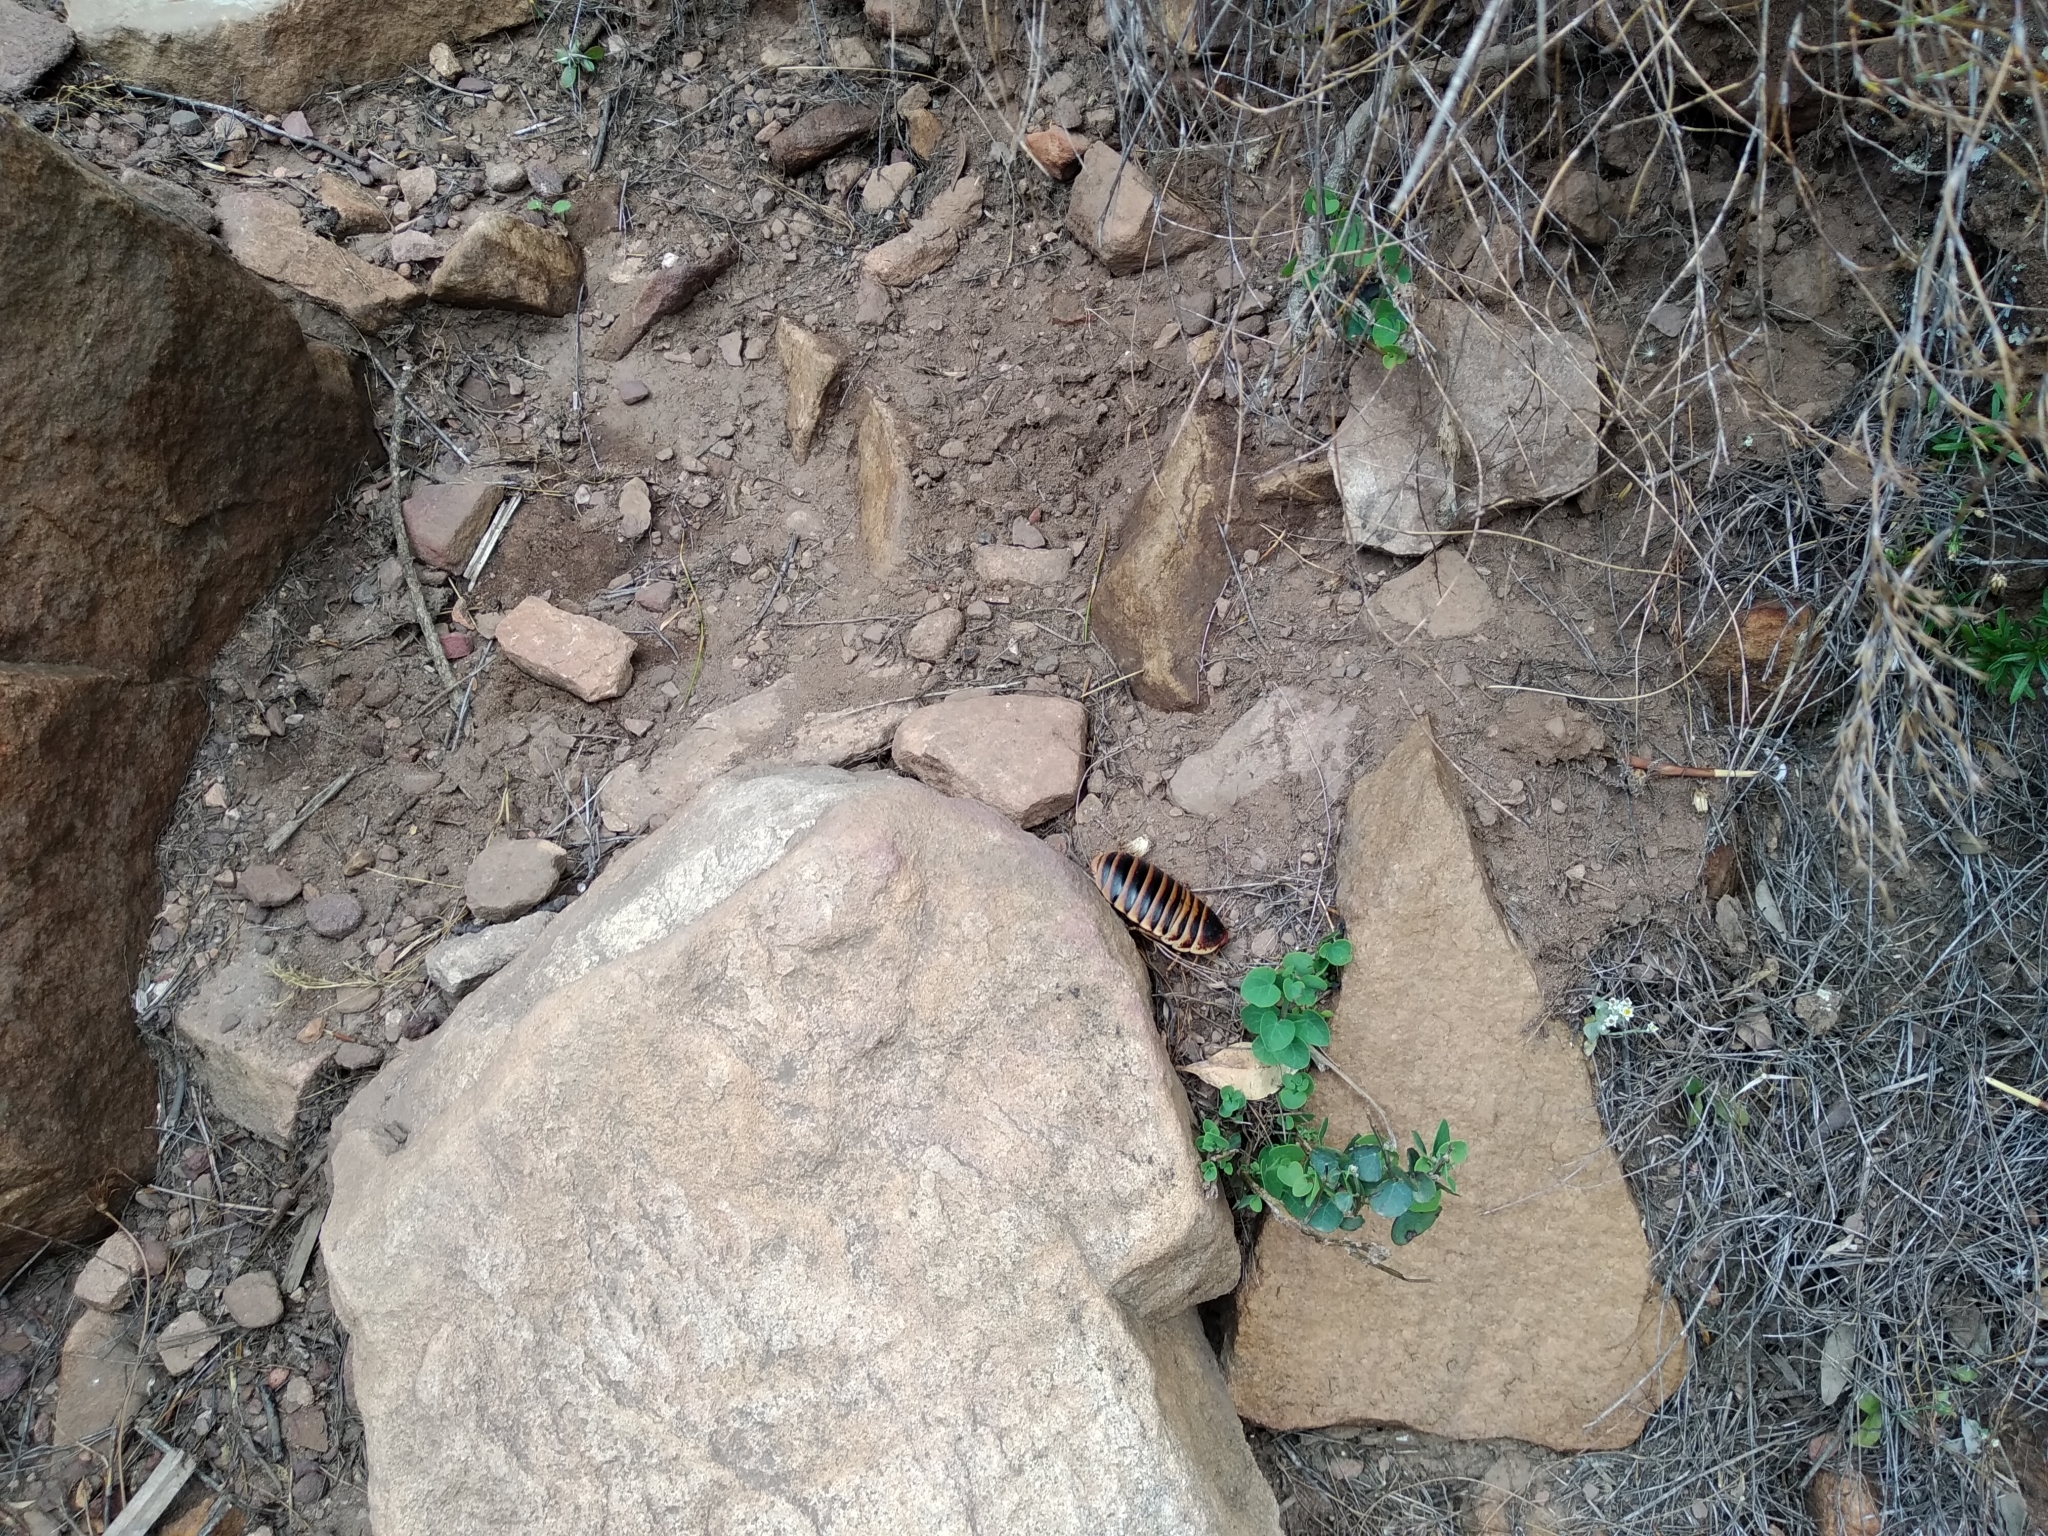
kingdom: Animalia
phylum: Arthropoda
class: Insecta
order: Blattodea
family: Blaberidae
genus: Aptera
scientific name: Aptera fusca
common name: Cape mountain cockroach
